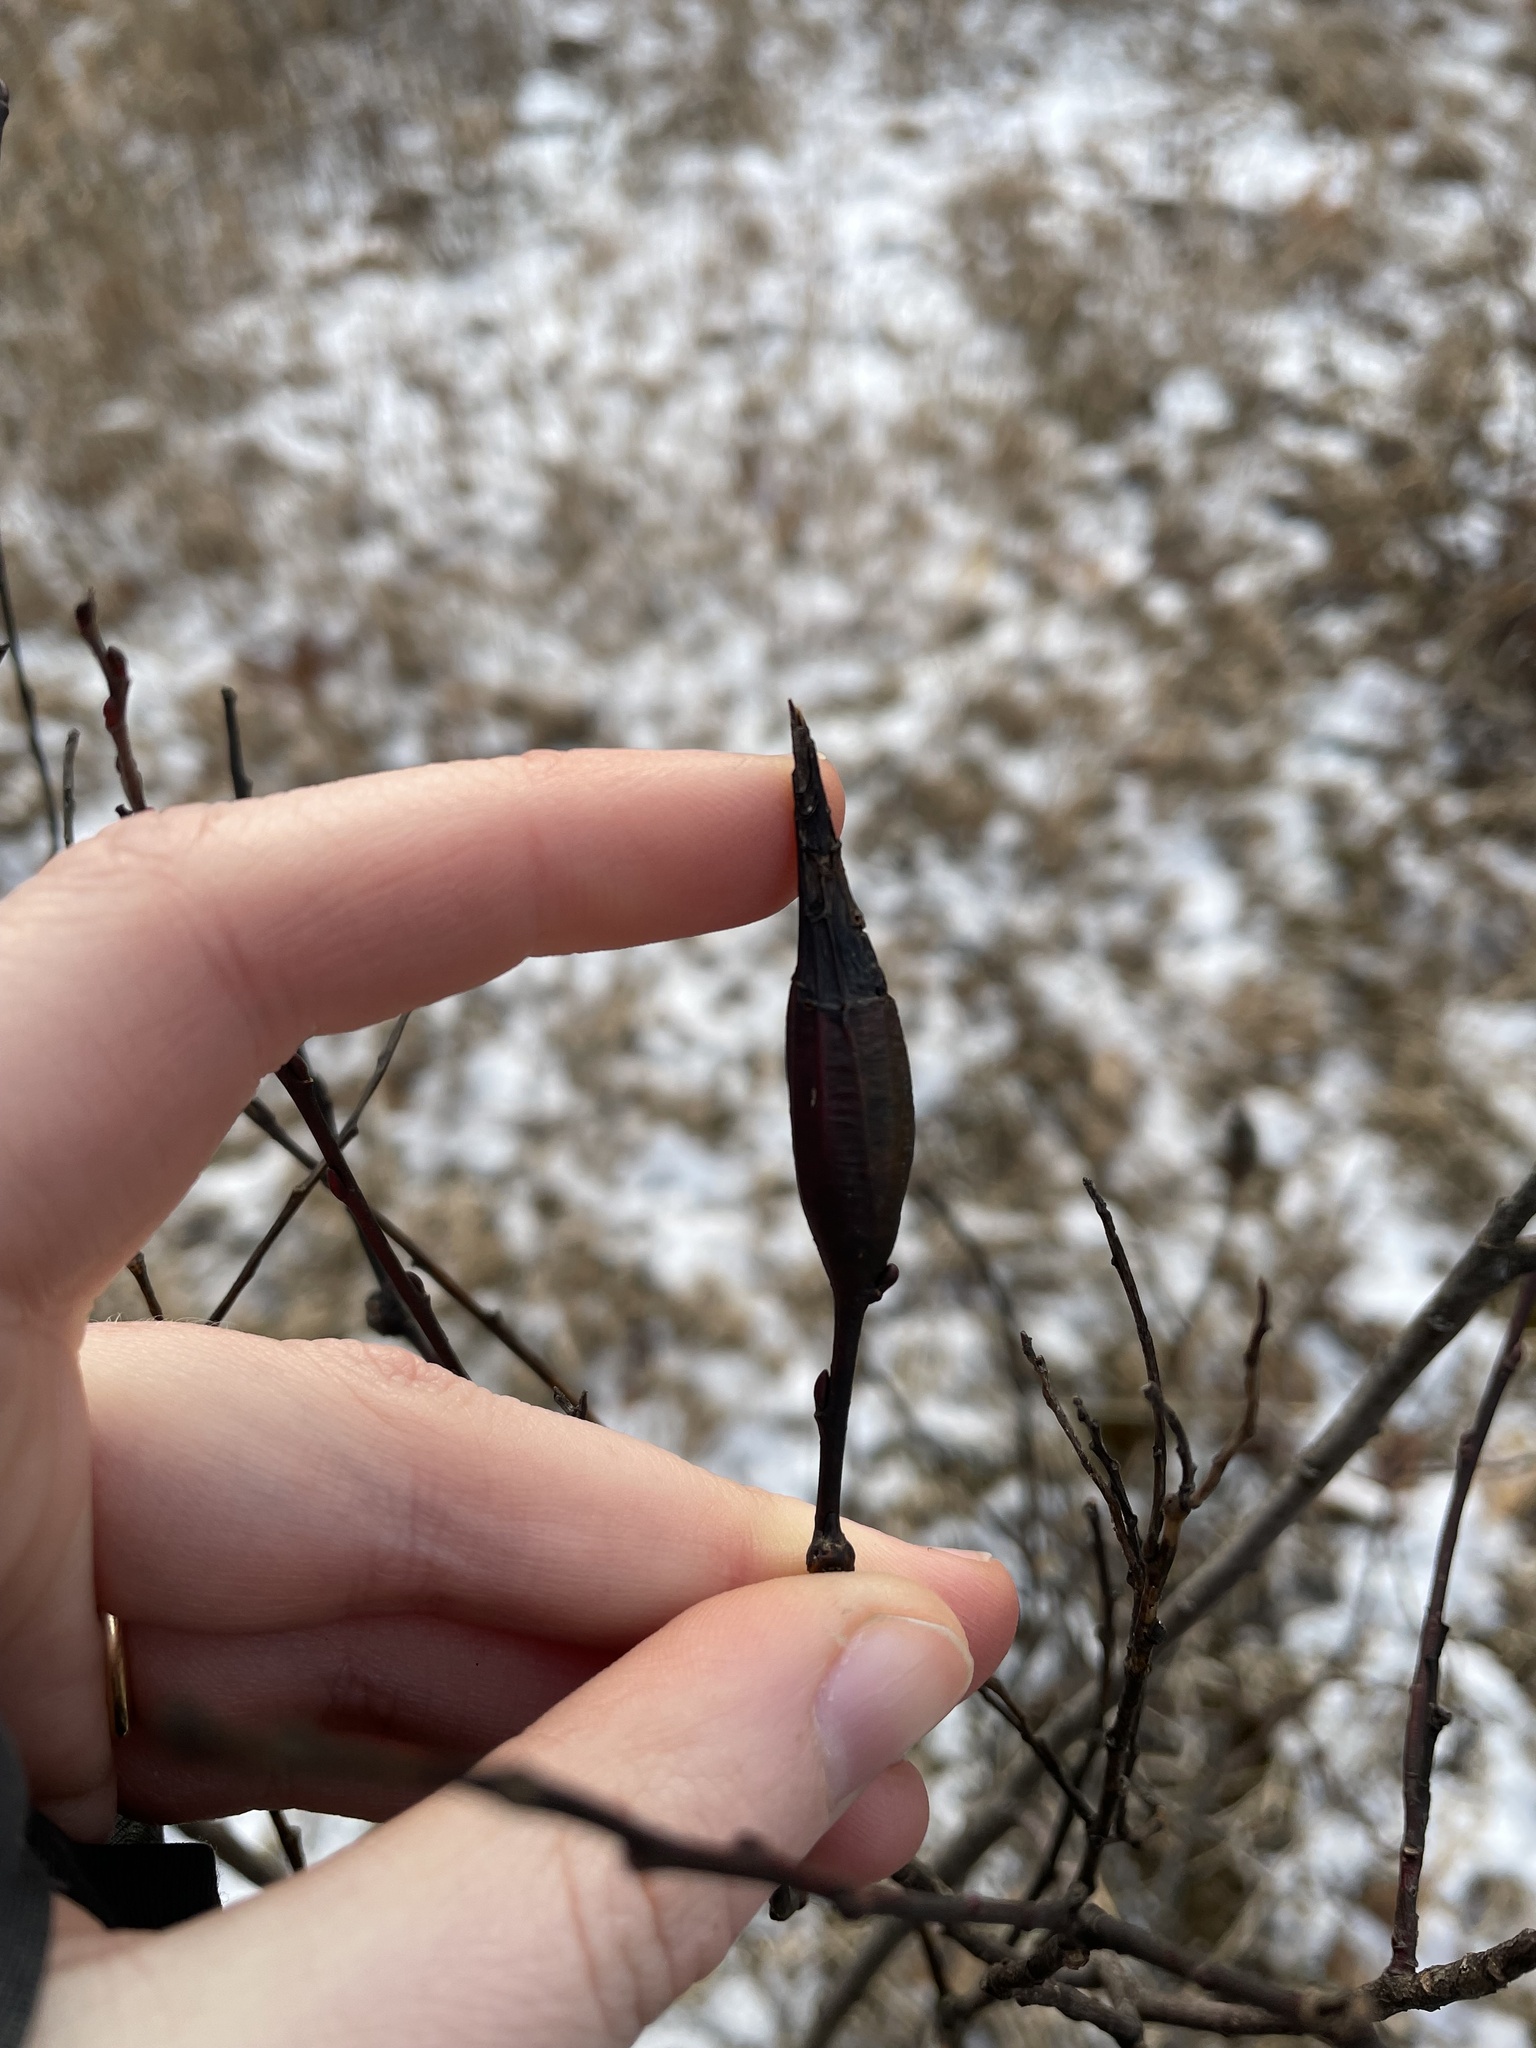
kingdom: Animalia
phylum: Arthropoda
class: Insecta
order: Diptera
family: Cecidomyiidae
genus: Thecodiplosis
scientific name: Thecodiplosis pinirigidae
